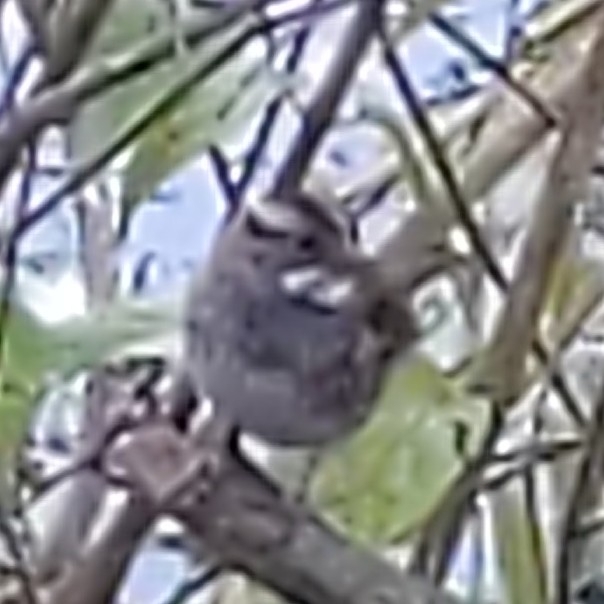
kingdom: Animalia
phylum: Chordata
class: Aves
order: Passeriformes
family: Passerellidae
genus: Zonotrichia
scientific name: Zonotrichia albicollis
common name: White-throated sparrow
